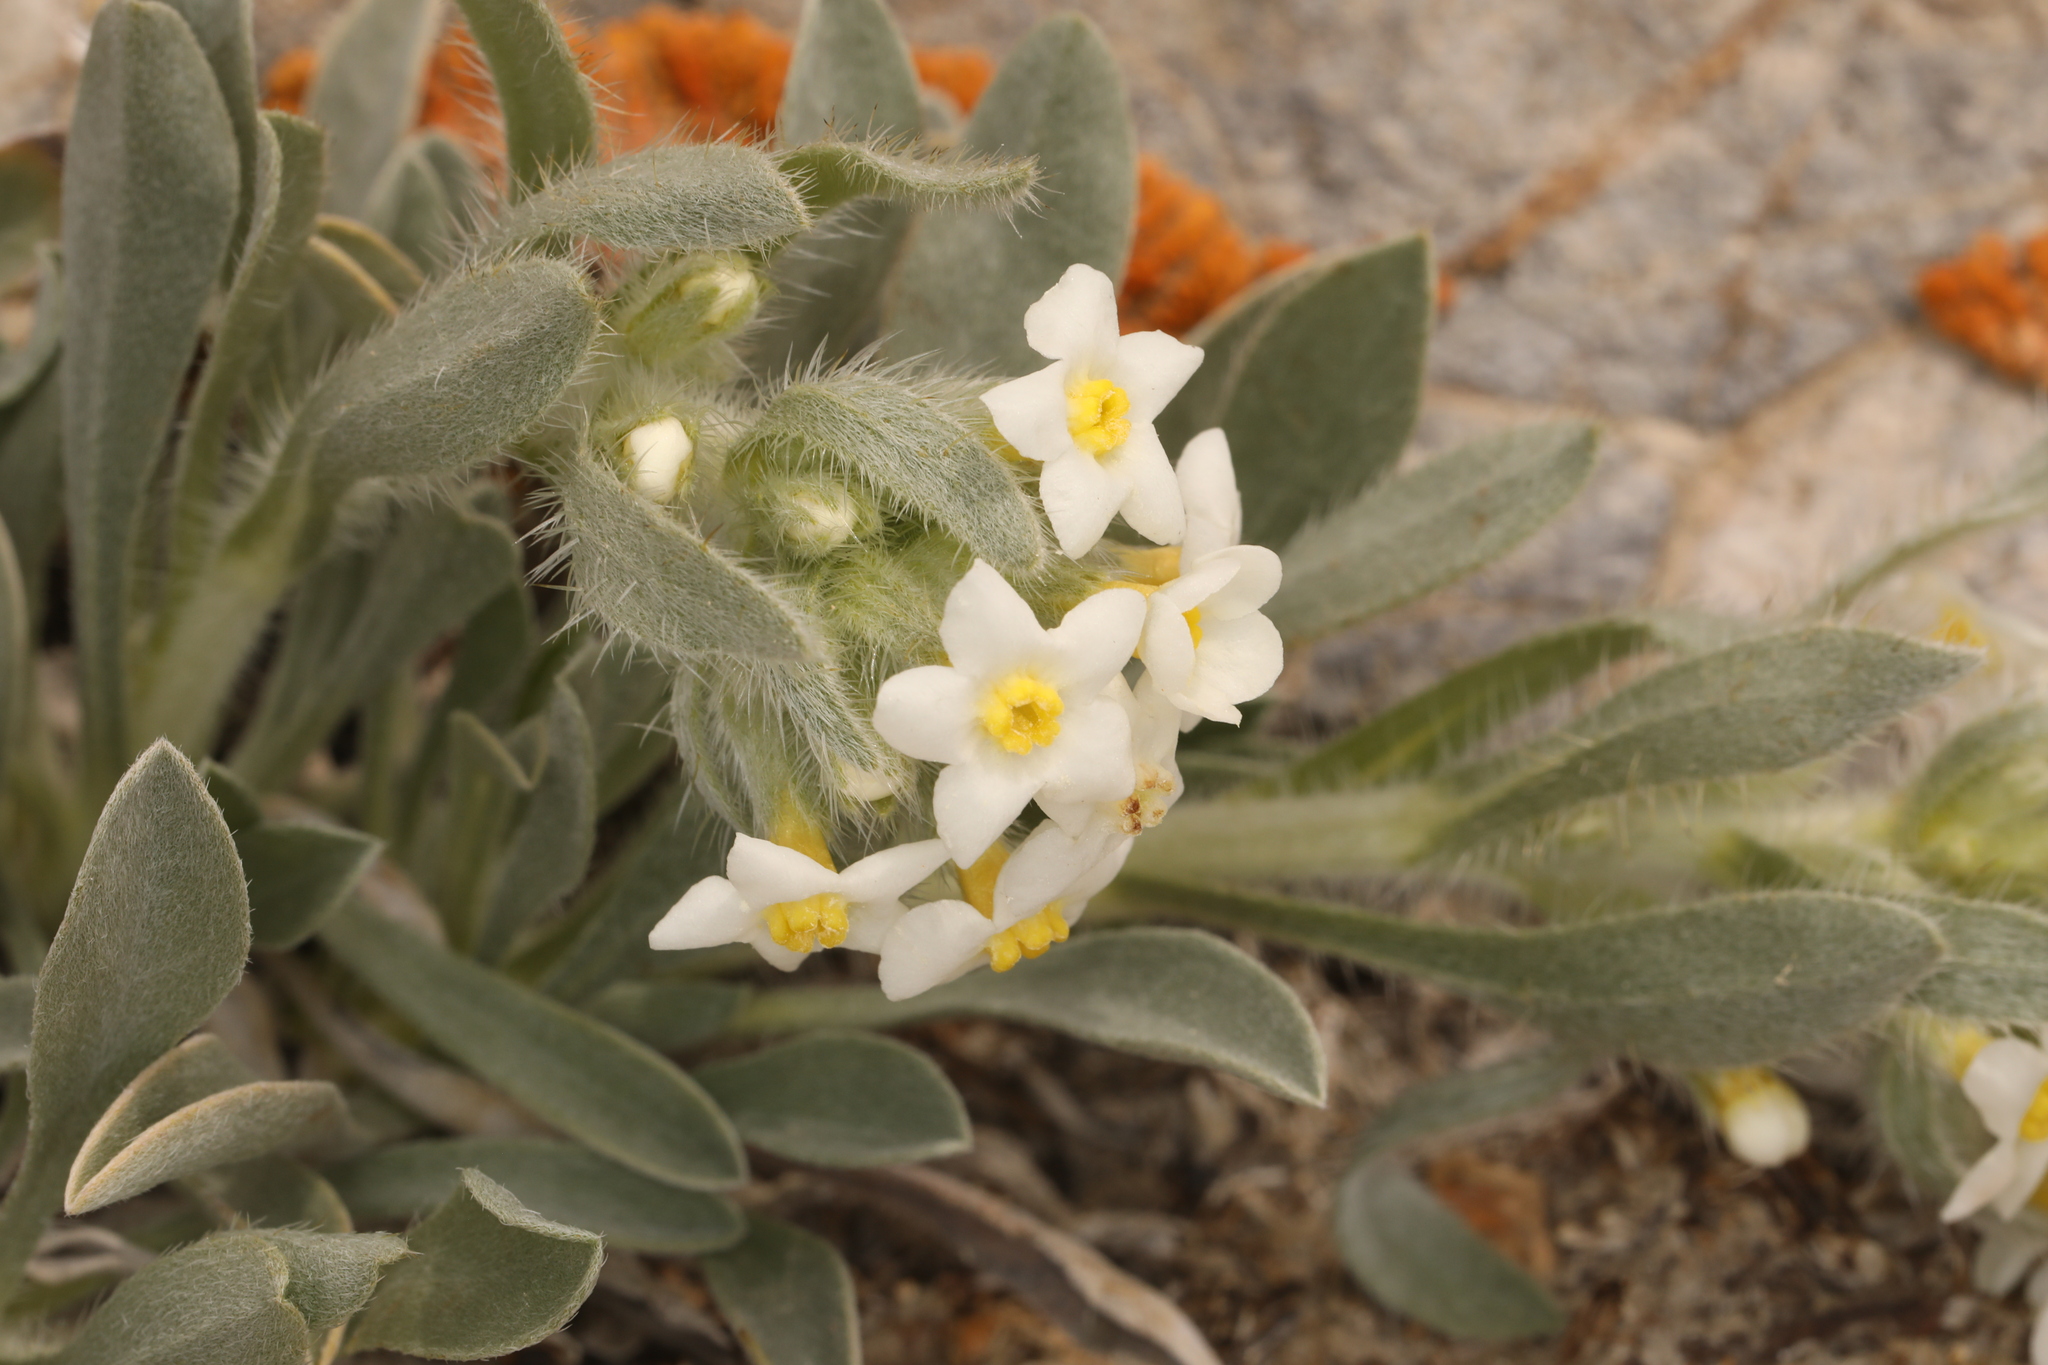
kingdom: Plantae
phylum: Tracheophyta
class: Magnoliopsida
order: Boraginales
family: Boraginaceae
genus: Oreocarya
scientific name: Oreocarya flavoculata
